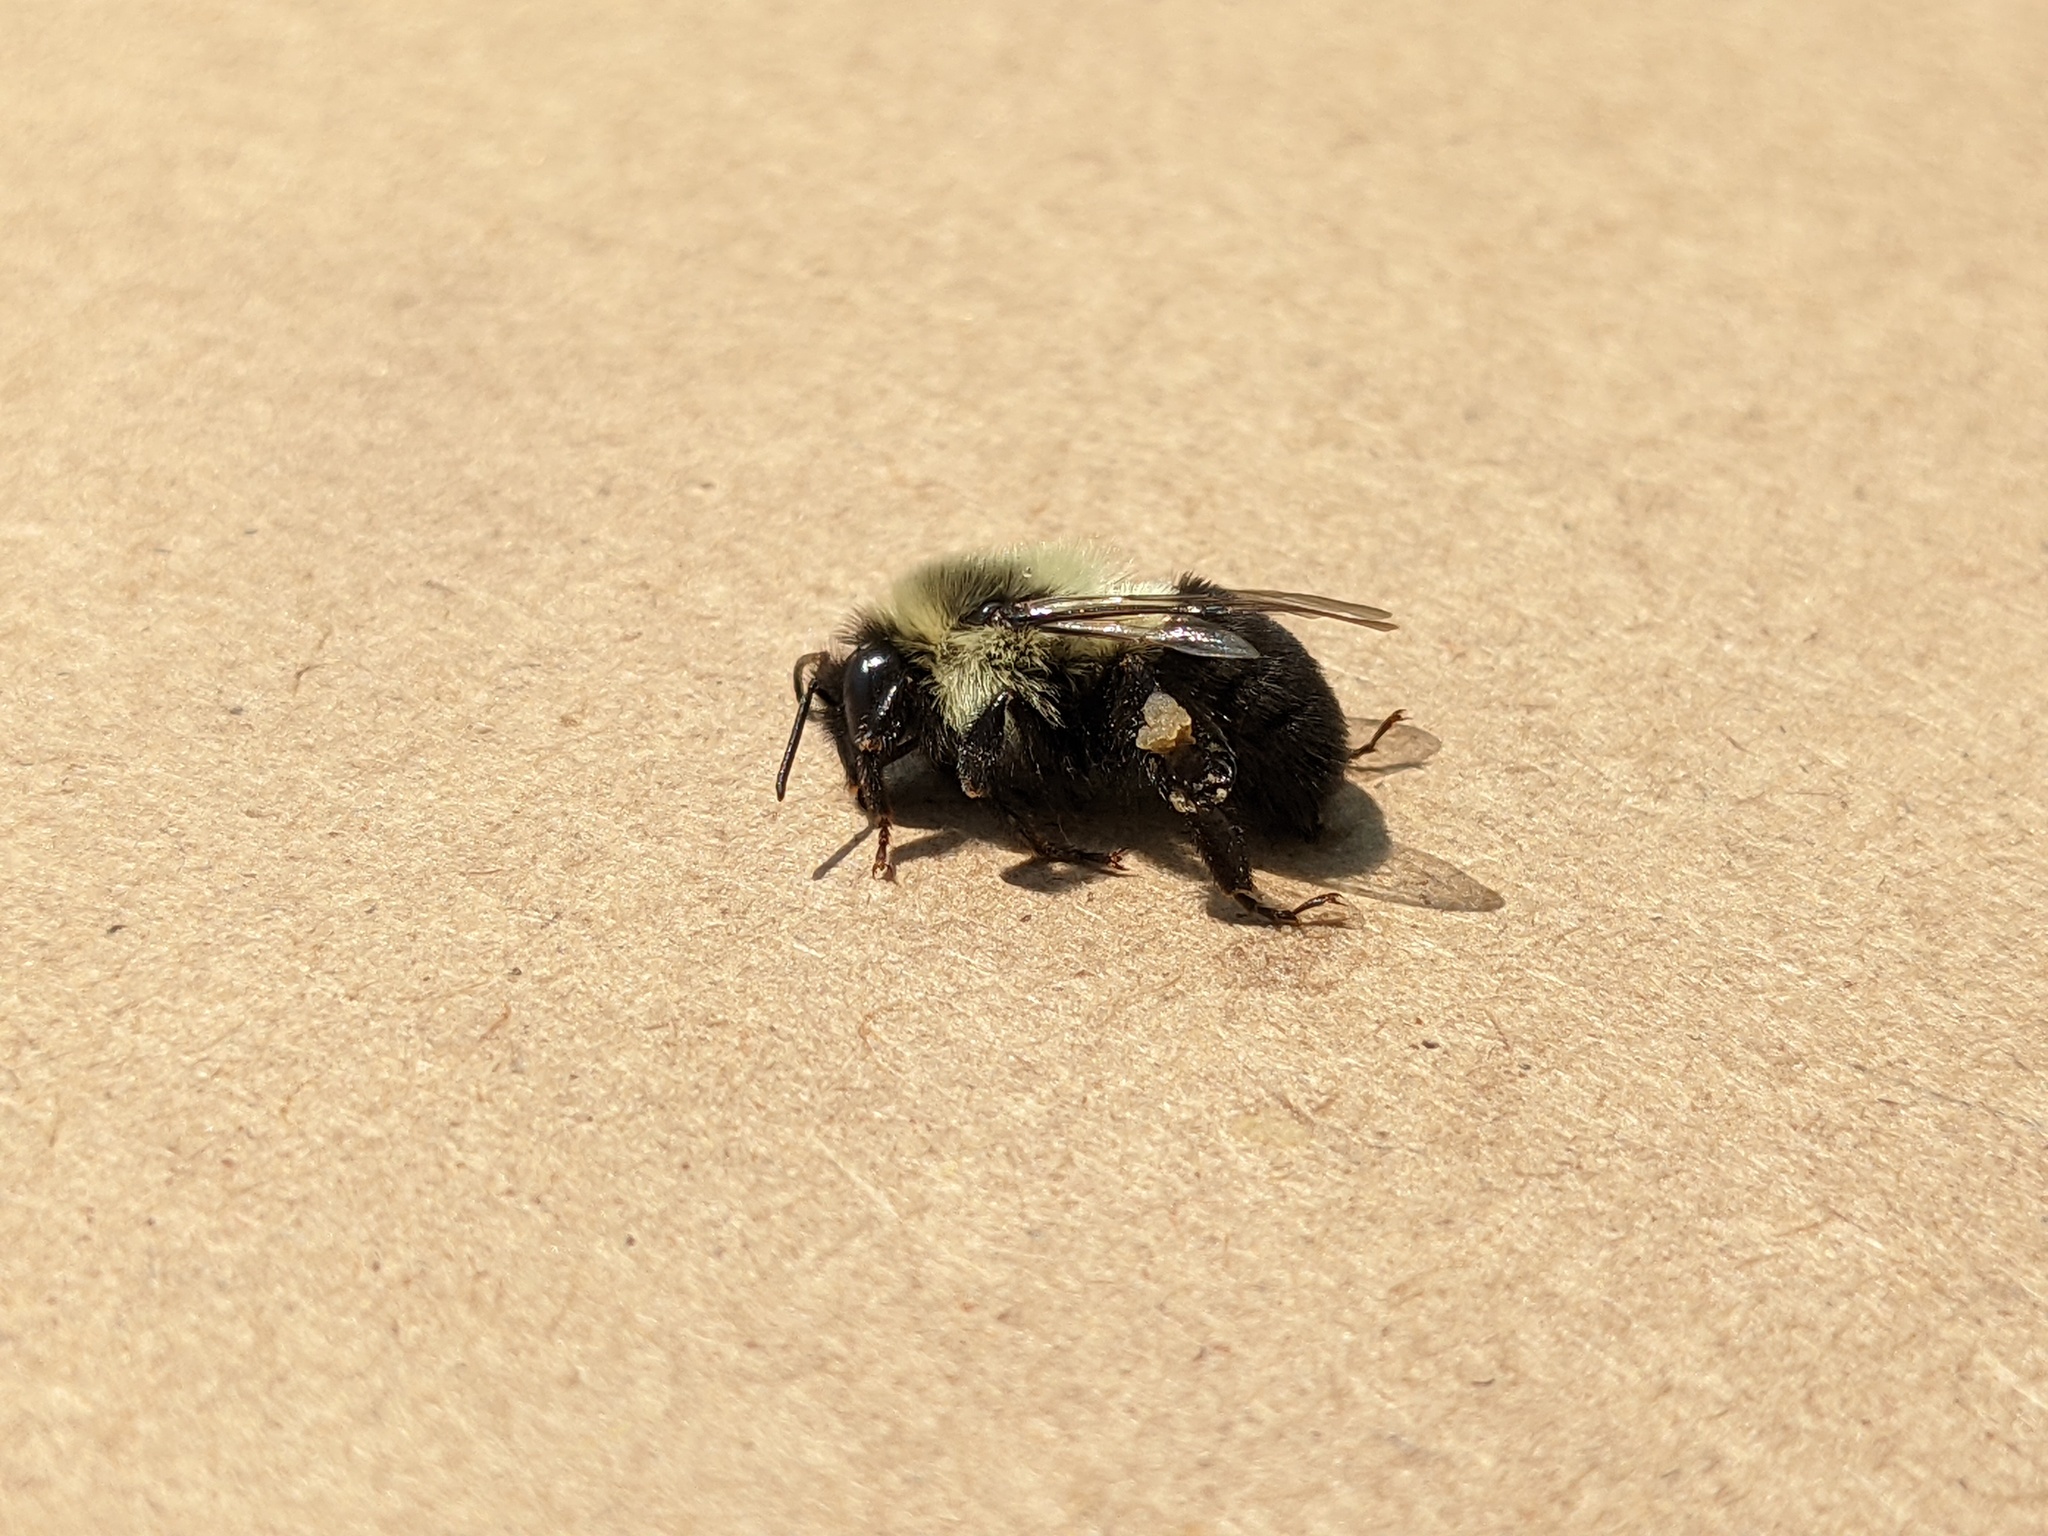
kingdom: Animalia
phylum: Arthropoda
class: Insecta
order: Hymenoptera
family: Apidae
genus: Bombus
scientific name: Bombus impatiens
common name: Common eastern bumble bee
